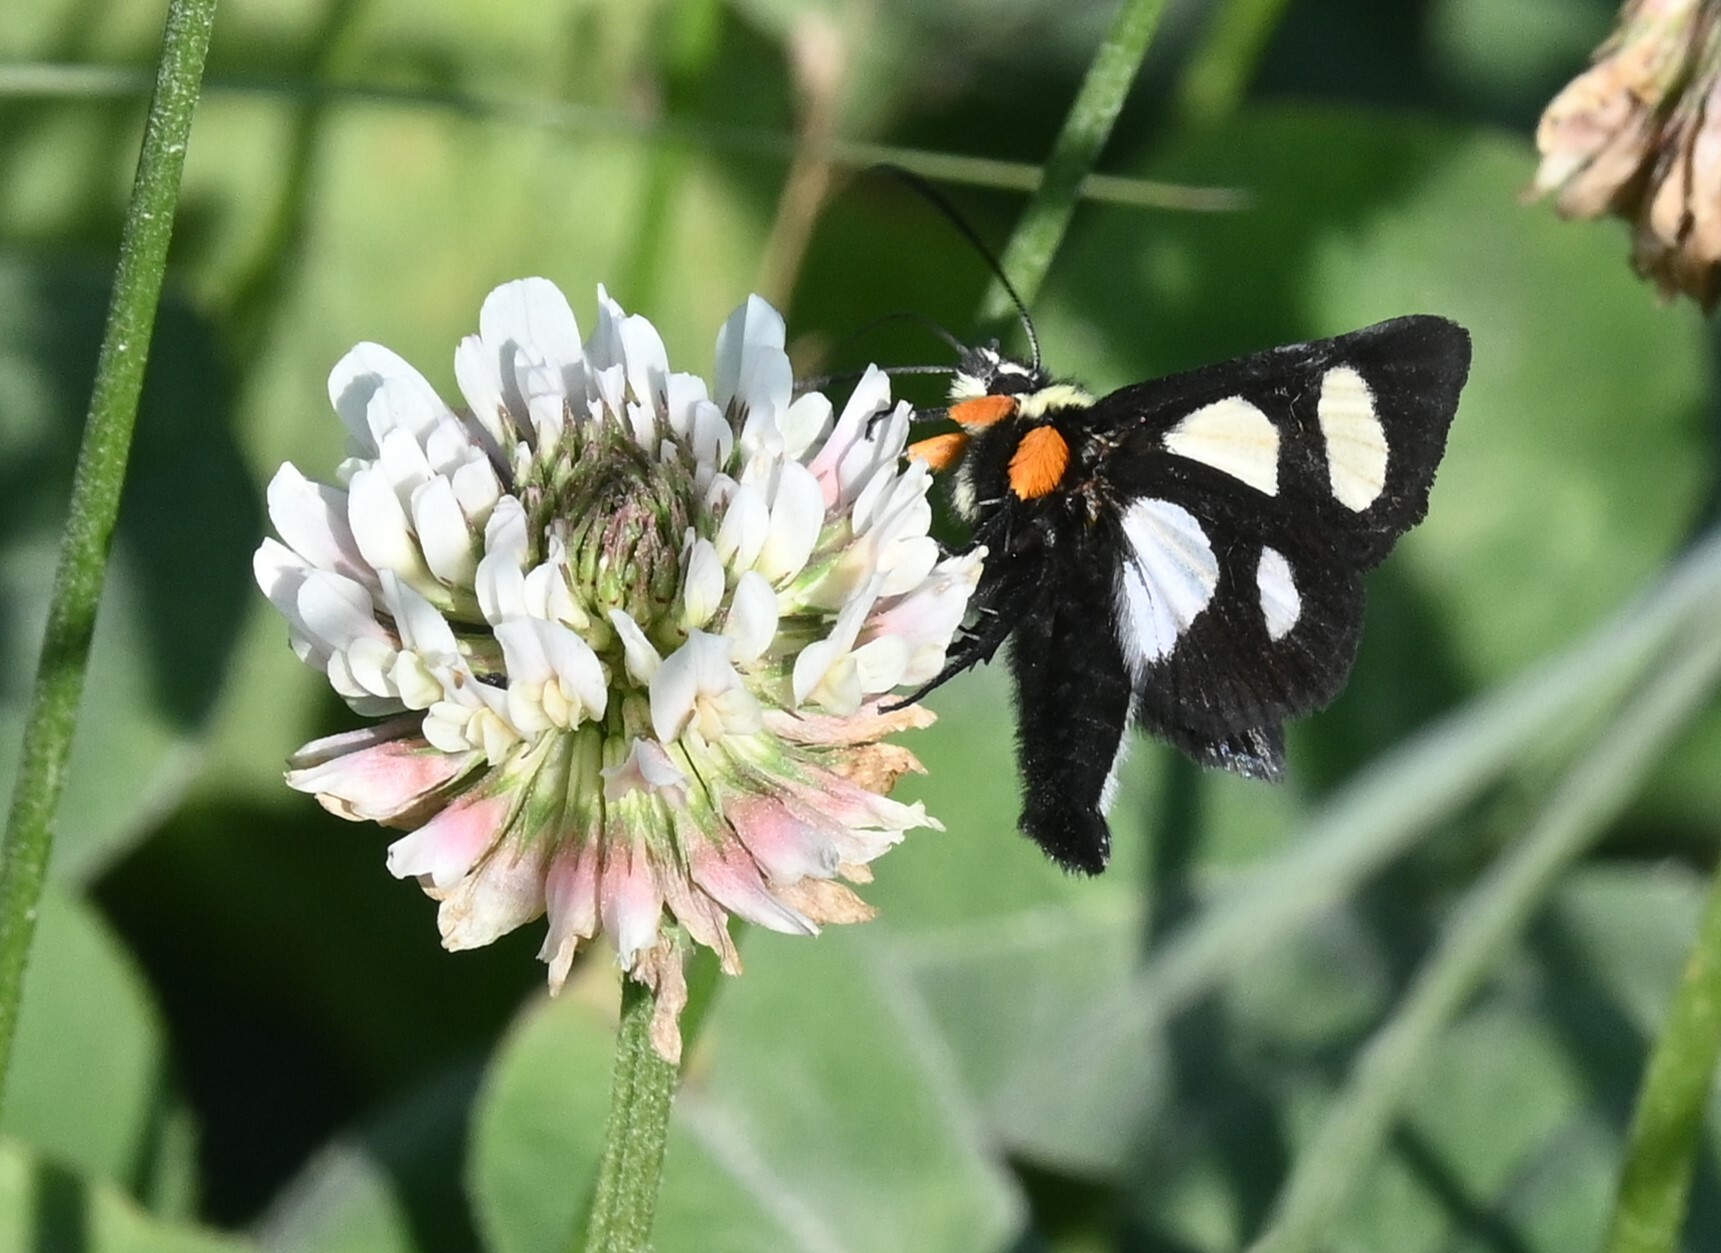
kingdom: Animalia
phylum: Arthropoda
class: Insecta
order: Lepidoptera
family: Noctuidae
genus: Alypia
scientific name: Alypia octomaculata
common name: Eight-spotted forester
